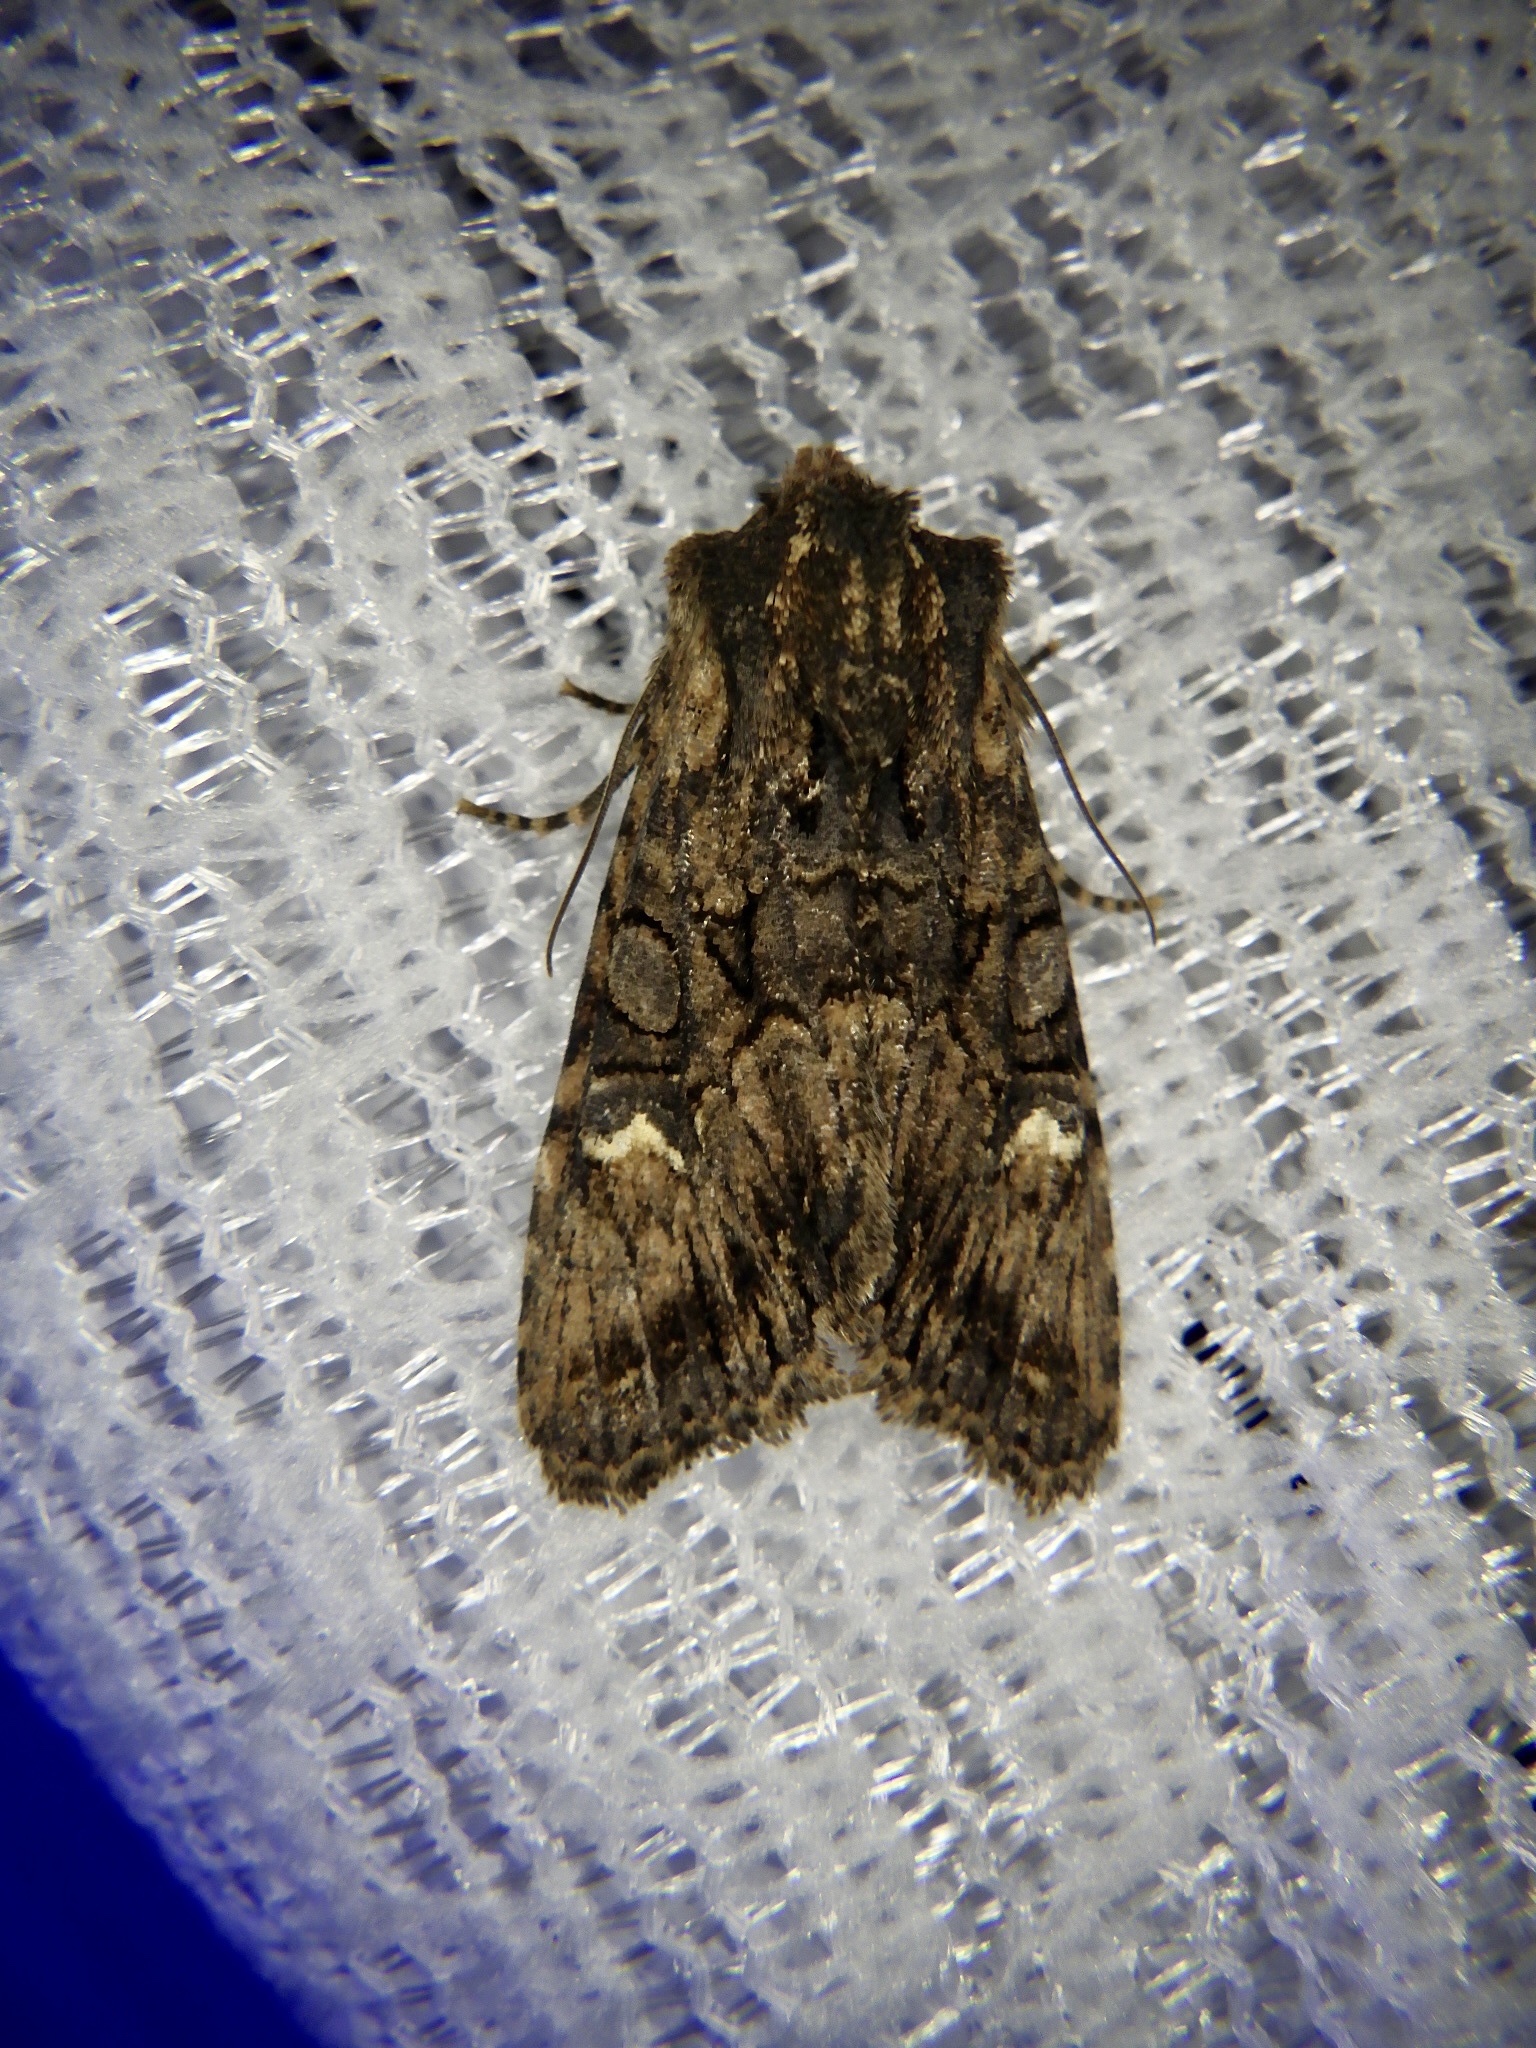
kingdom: Animalia
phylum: Arthropoda
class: Insecta
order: Lepidoptera
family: Noctuidae
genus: Nyctycia
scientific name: Nyctycia strigidisca
